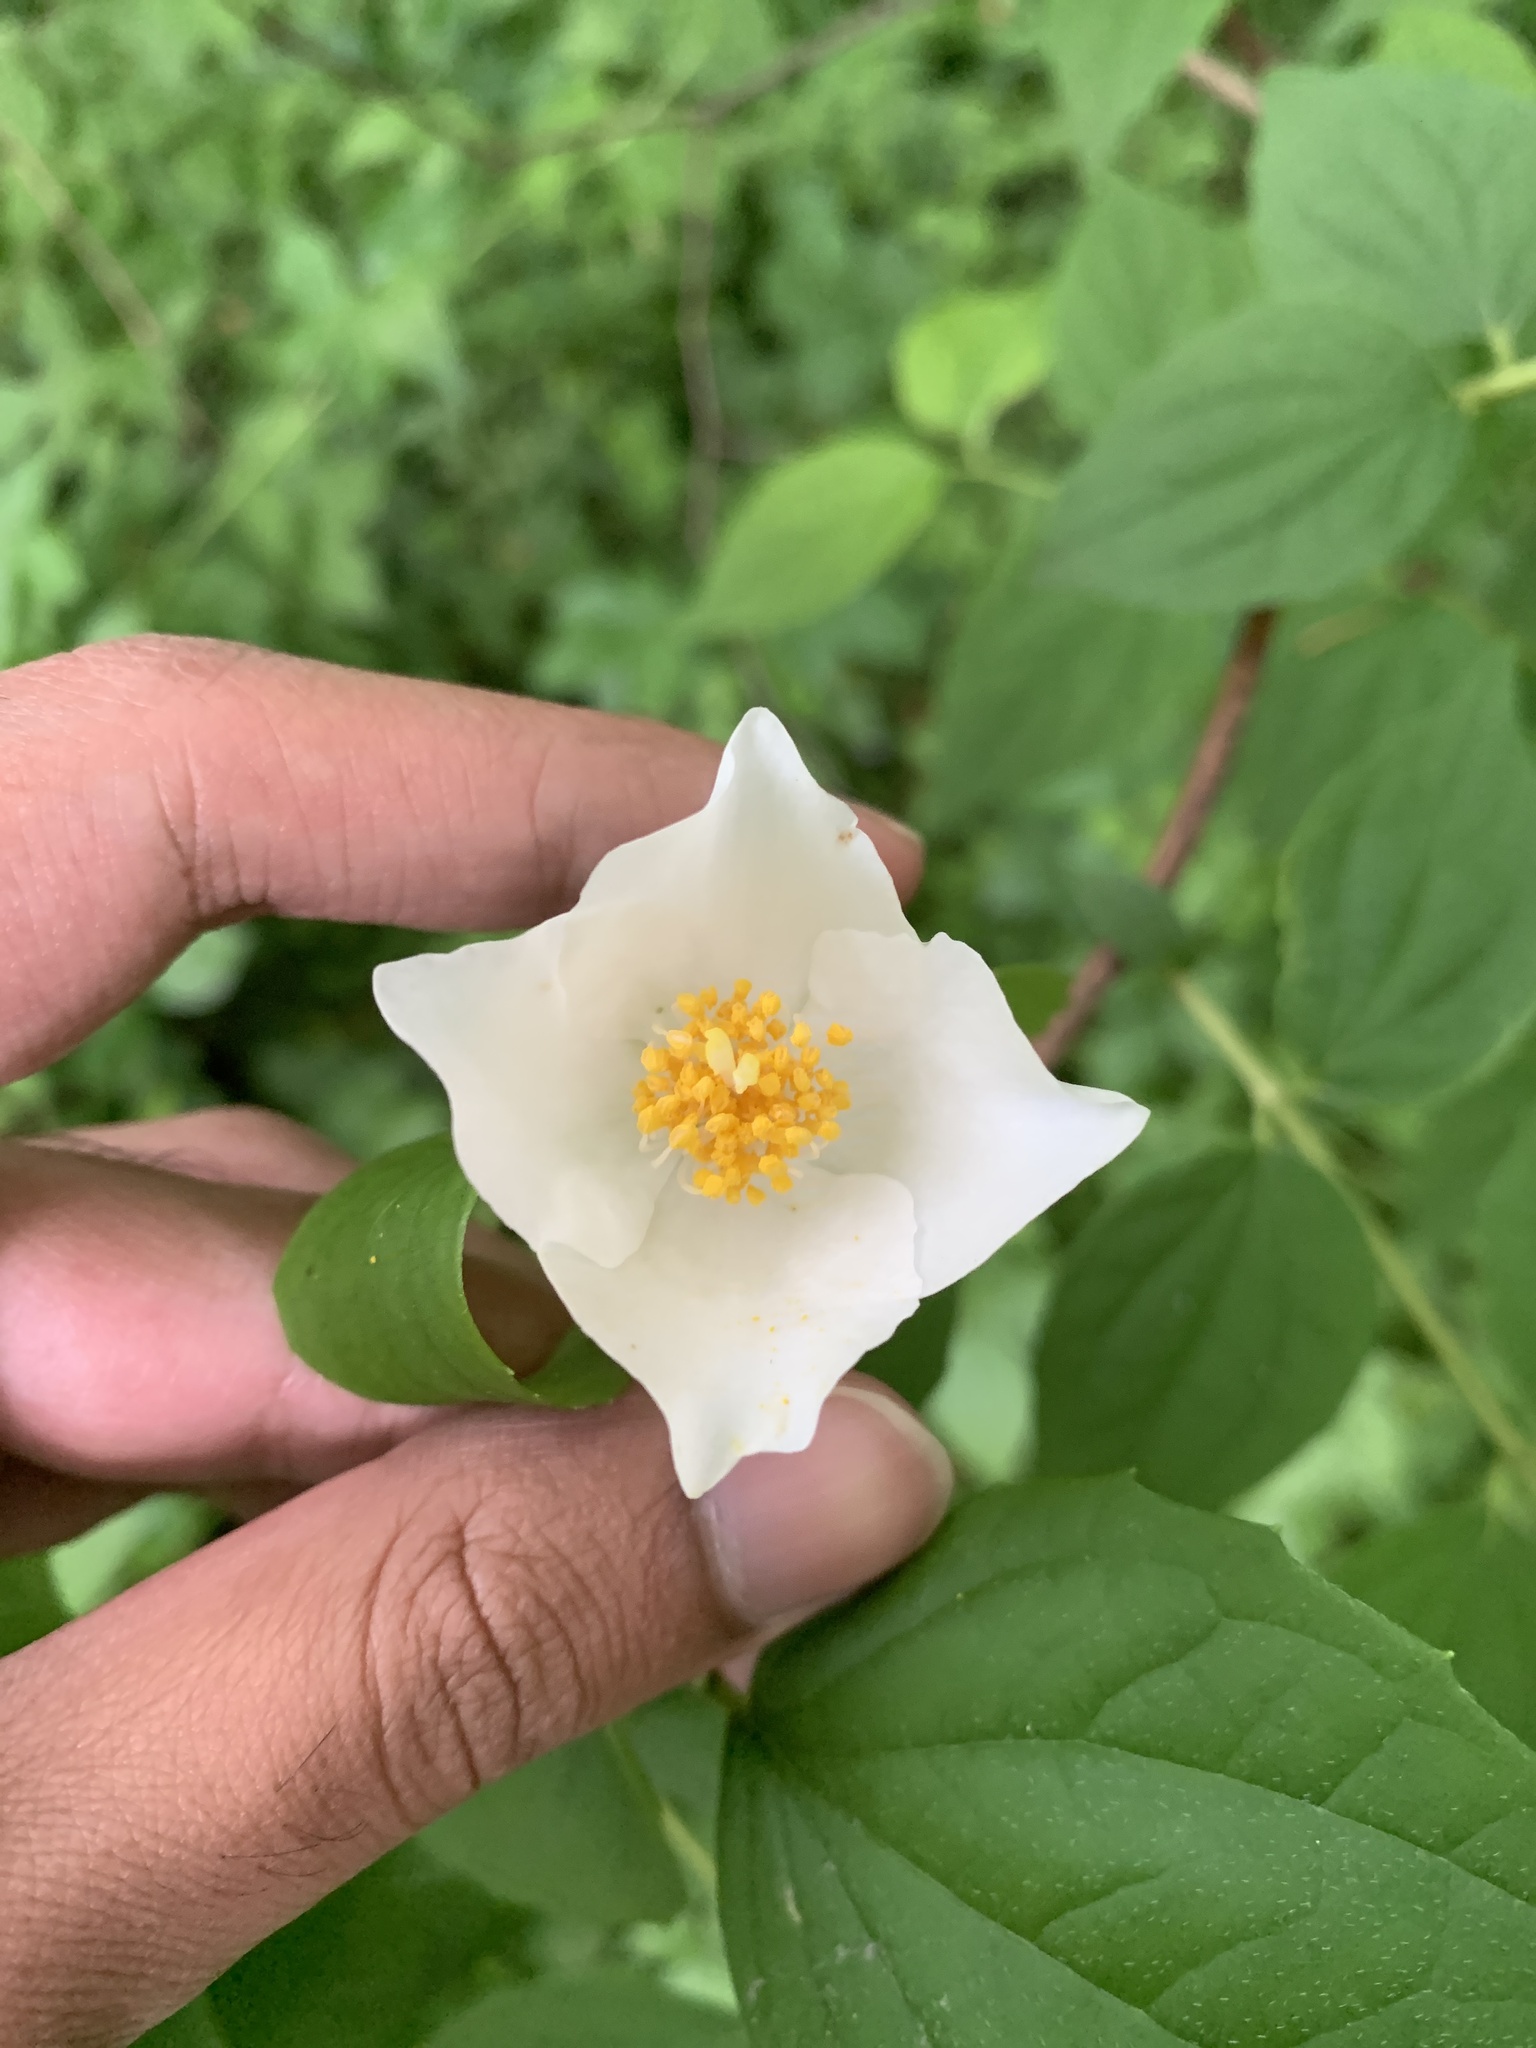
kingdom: Plantae
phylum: Tracheophyta
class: Magnoliopsida
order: Cornales
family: Hydrangeaceae
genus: Philadelphus
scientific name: Philadelphus inodorus
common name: Scentless mock-orange
